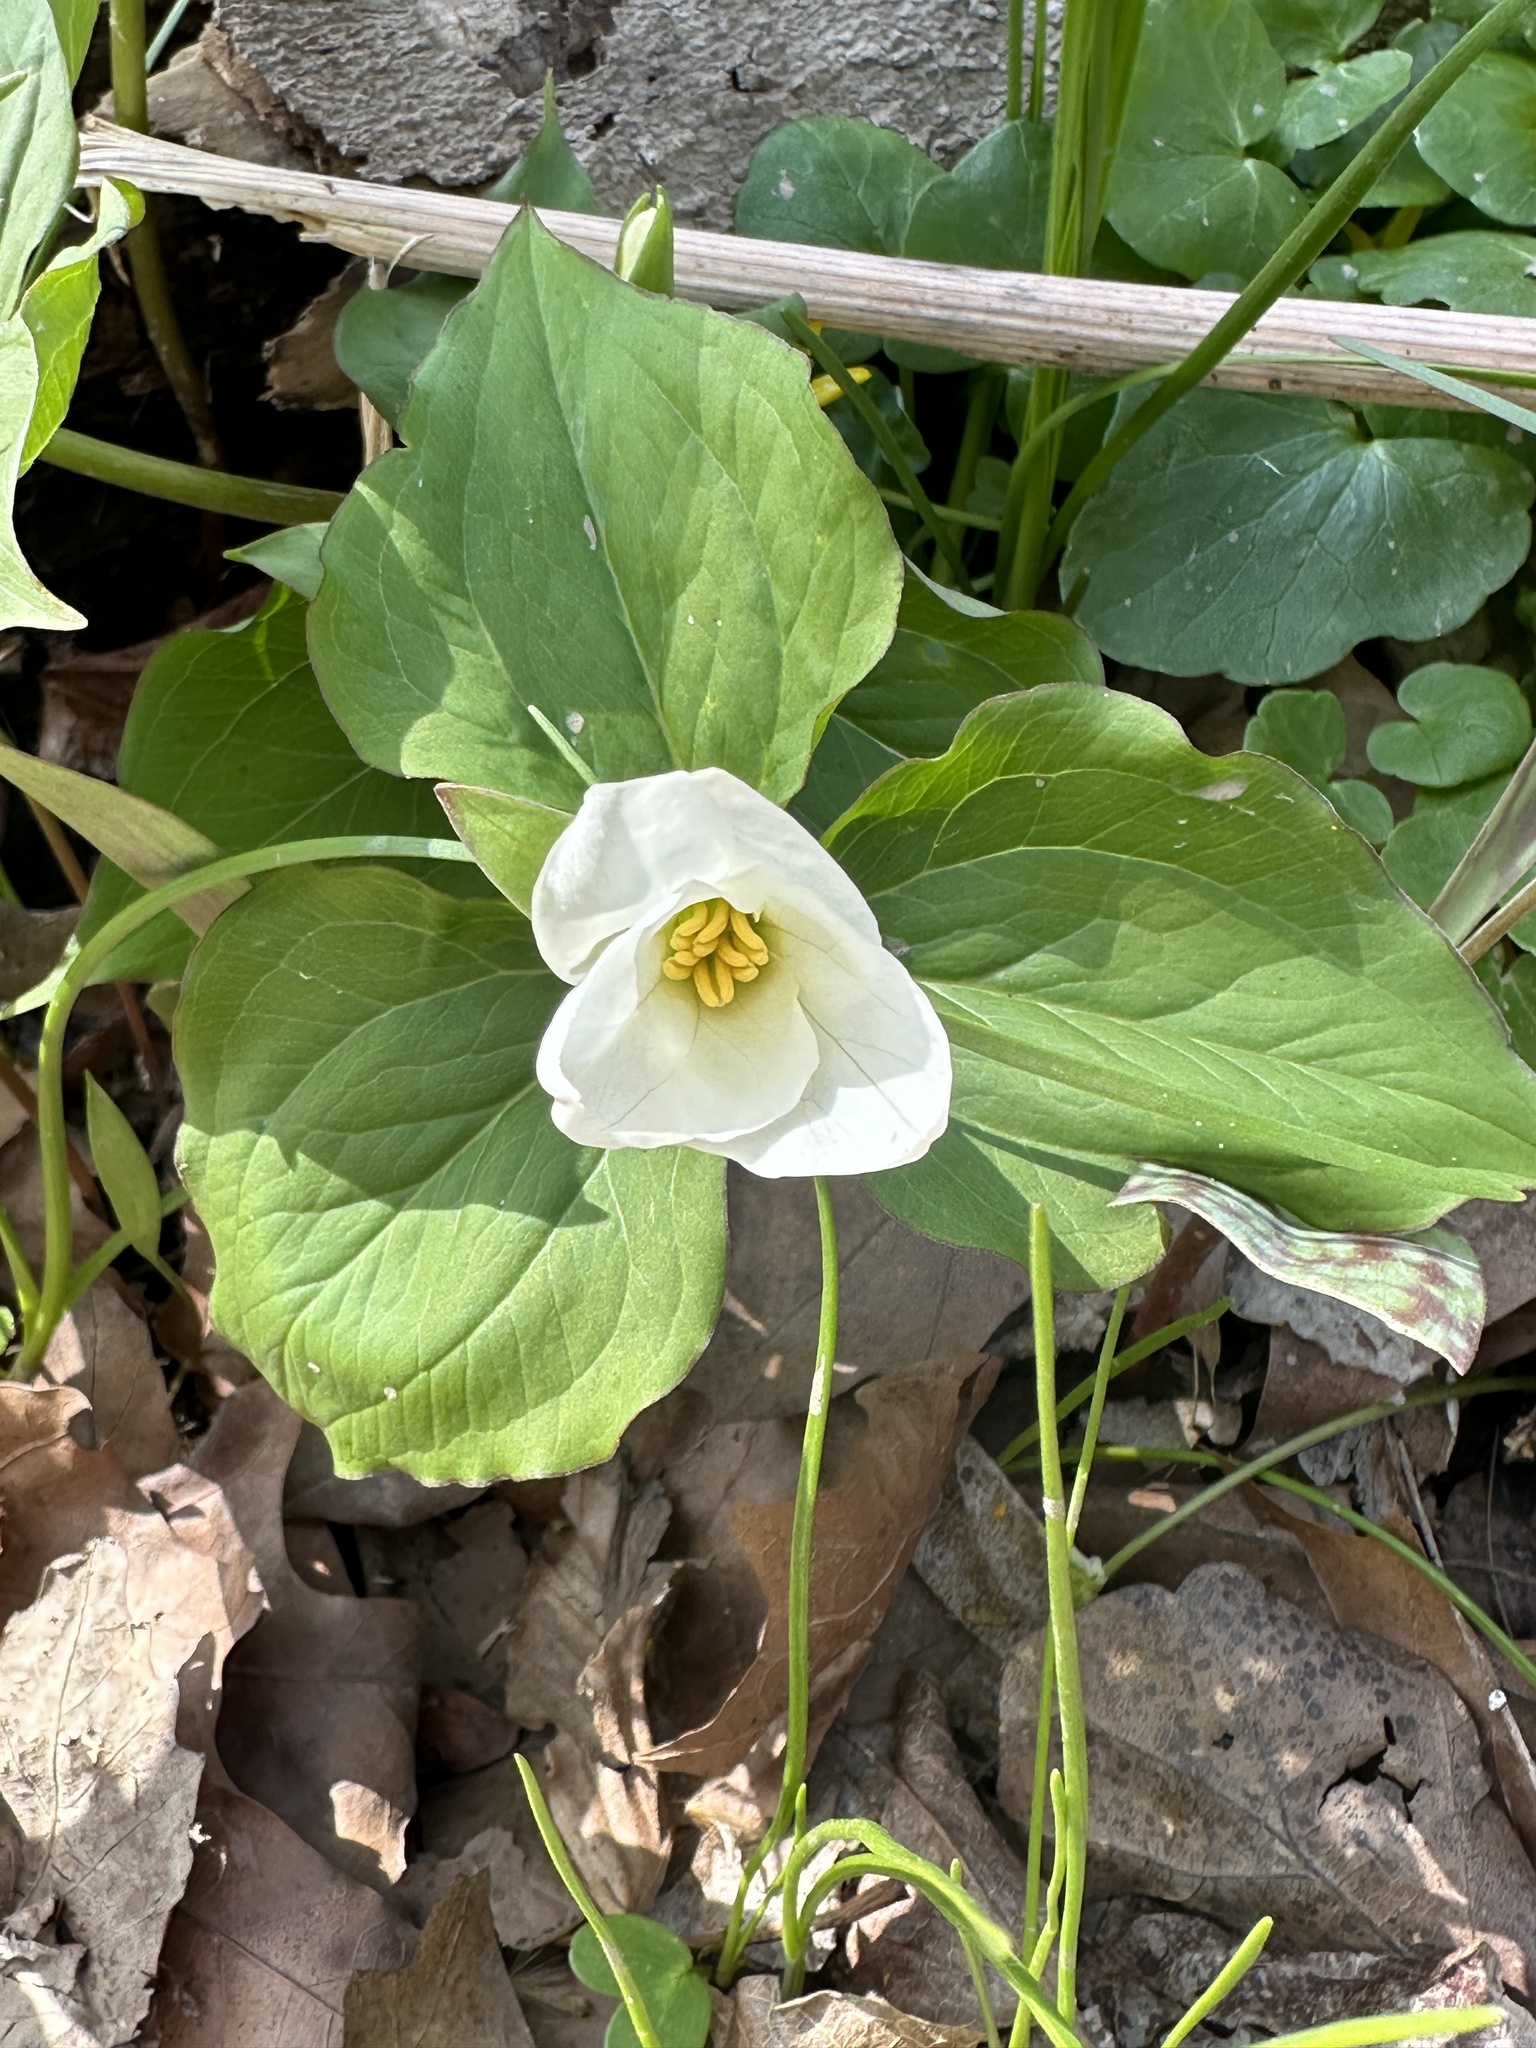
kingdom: Plantae
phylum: Tracheophyta
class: Liliopsida
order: Liliales
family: Melanthiaceae
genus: Trillium
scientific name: Trillium grandiflorum
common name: Great white trillium
